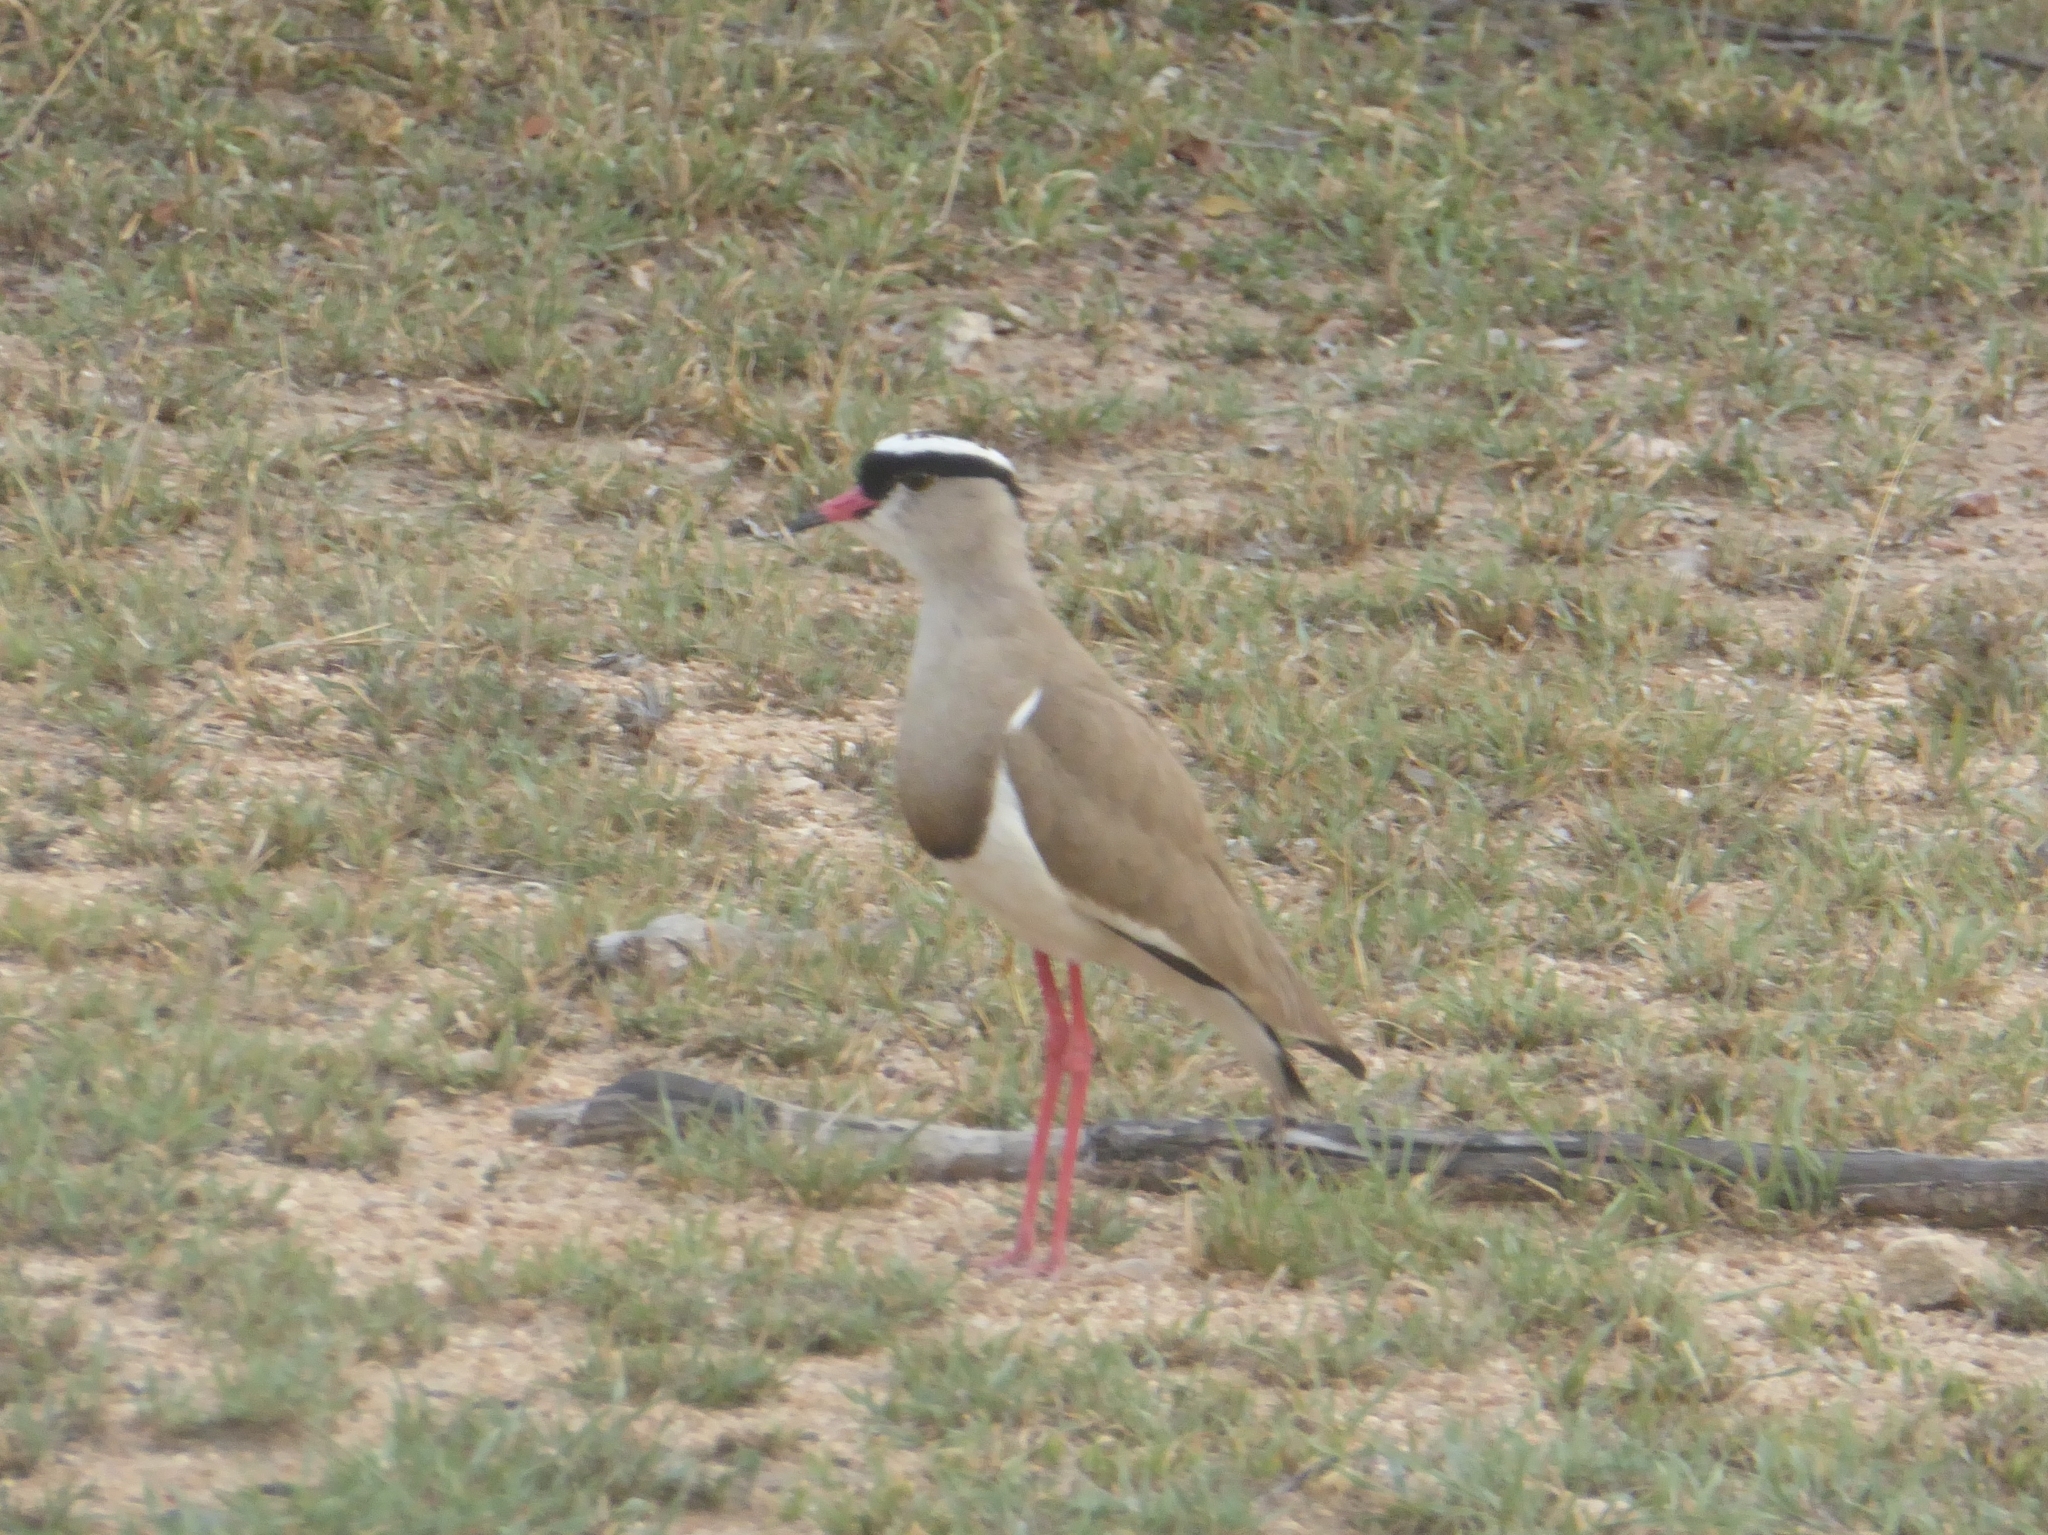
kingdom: Animalia
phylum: Chordata
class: Aves
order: Charadriiformes
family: Charadriidae
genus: Vanellus
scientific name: Vanellus coronatus
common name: Crowned lapwing
